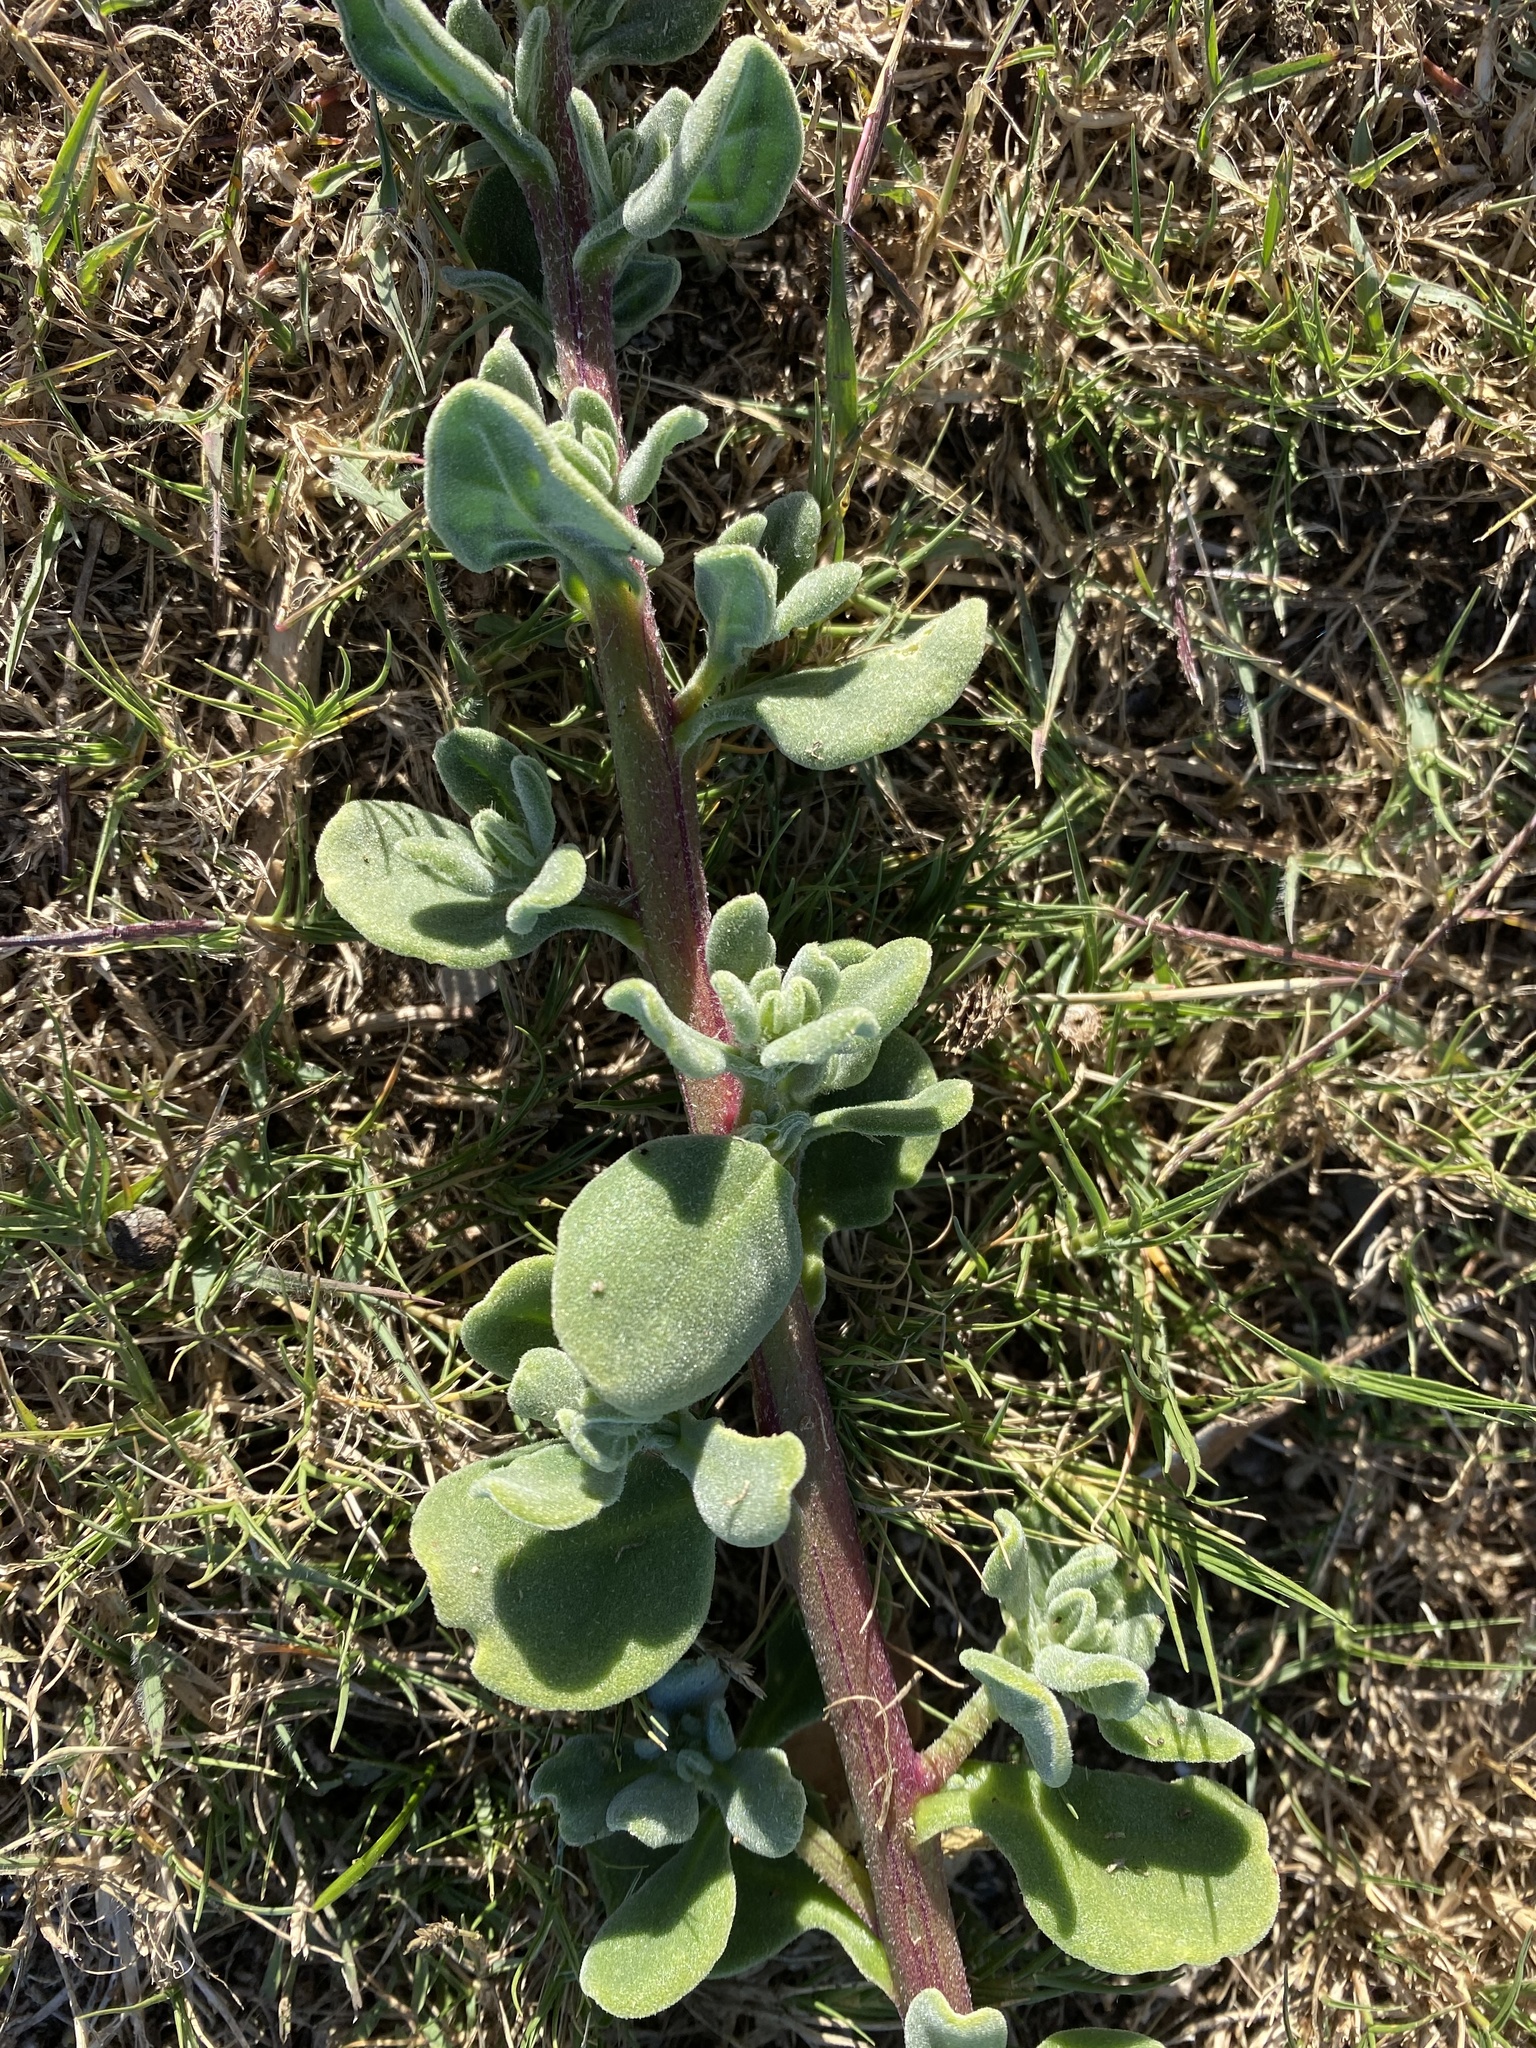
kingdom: Plantae
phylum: Tracheophyta
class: Magnoliopsida
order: Caryophyllales
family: Aizoaceae
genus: Tetragonia
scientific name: Tetragonia decumbens
